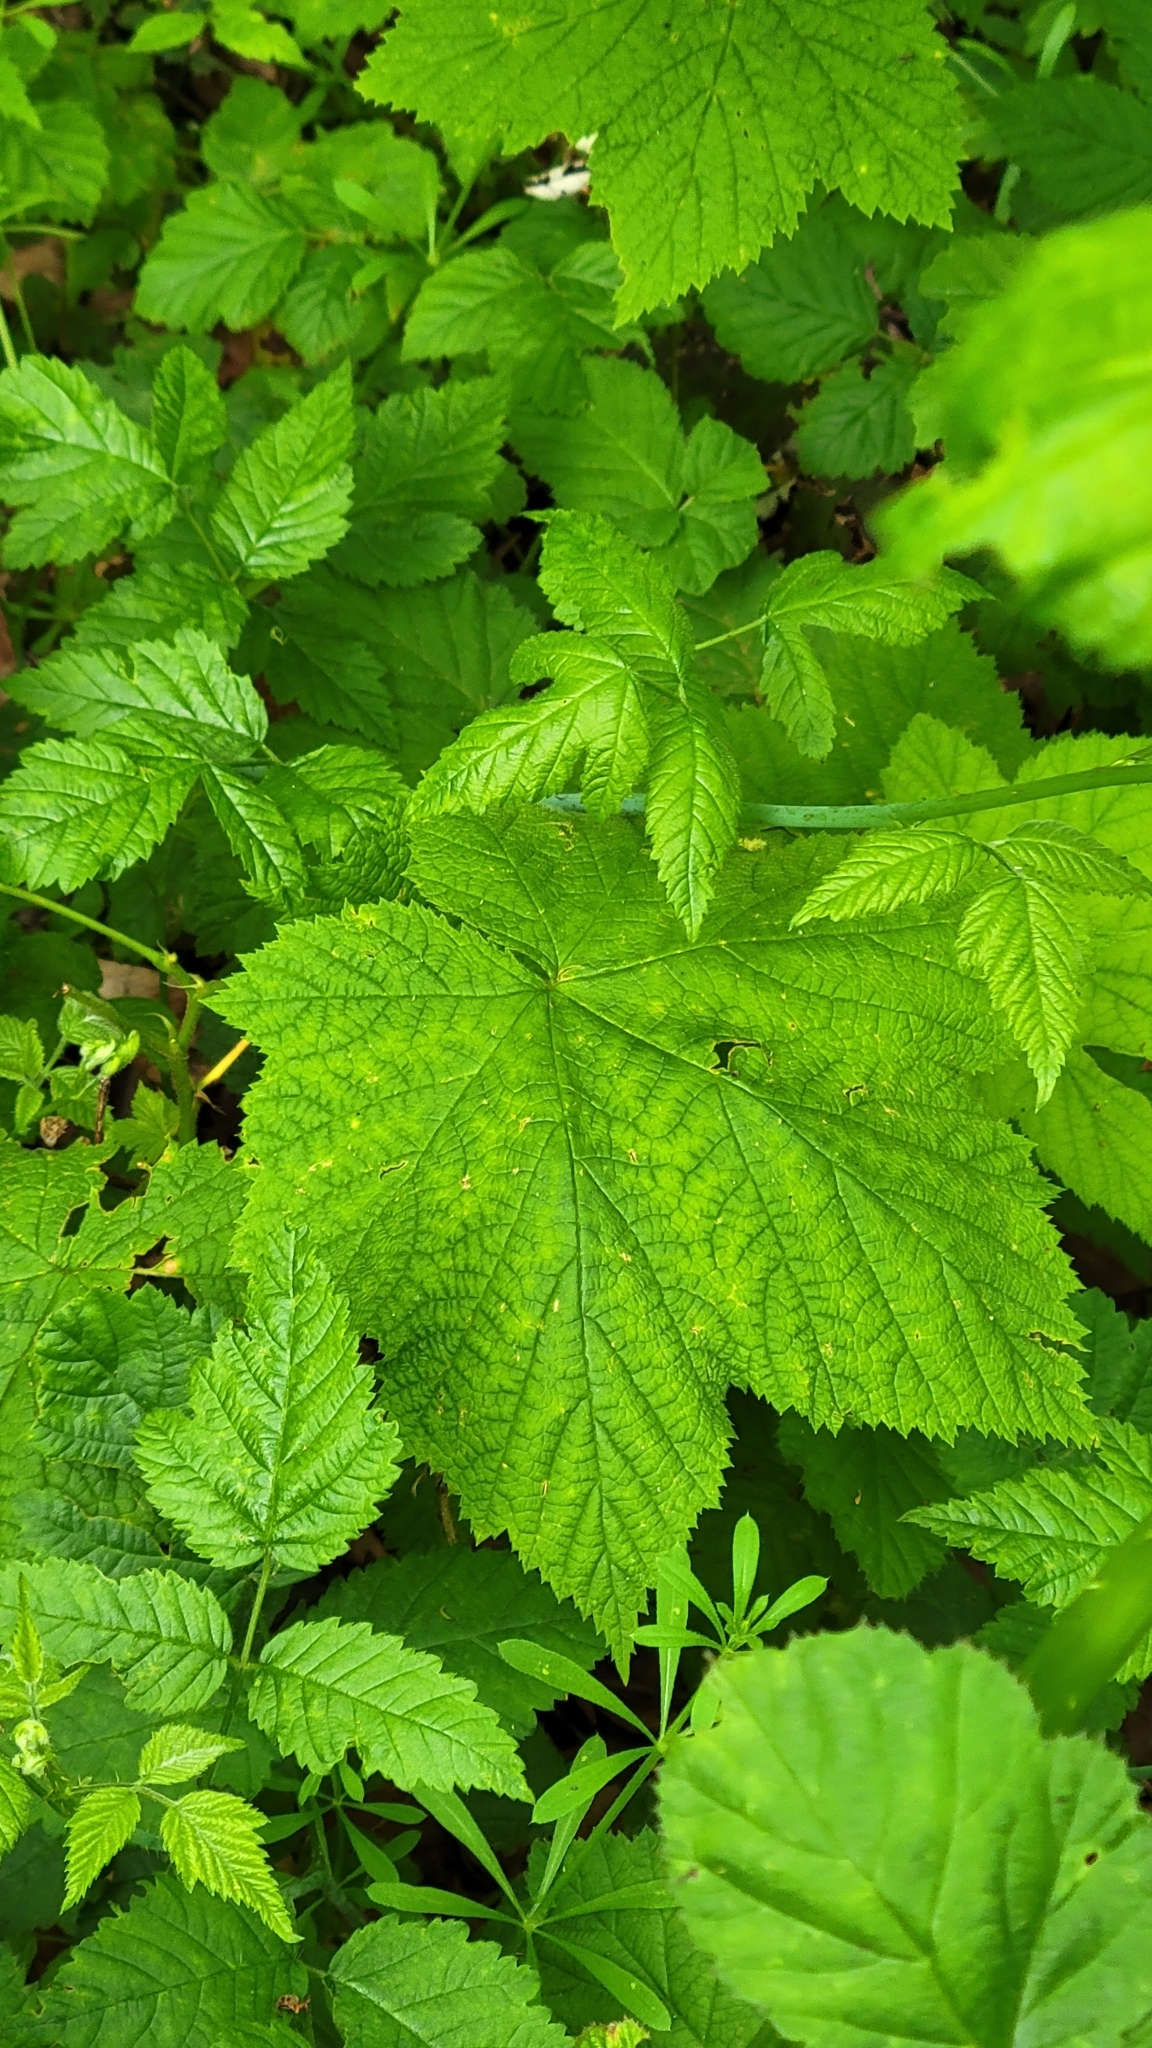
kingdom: Plantae
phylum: Tracheophyta
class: Magnoliopsida
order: Rosales
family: Rosaceae
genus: Rubus
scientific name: Rubus parviflorus
